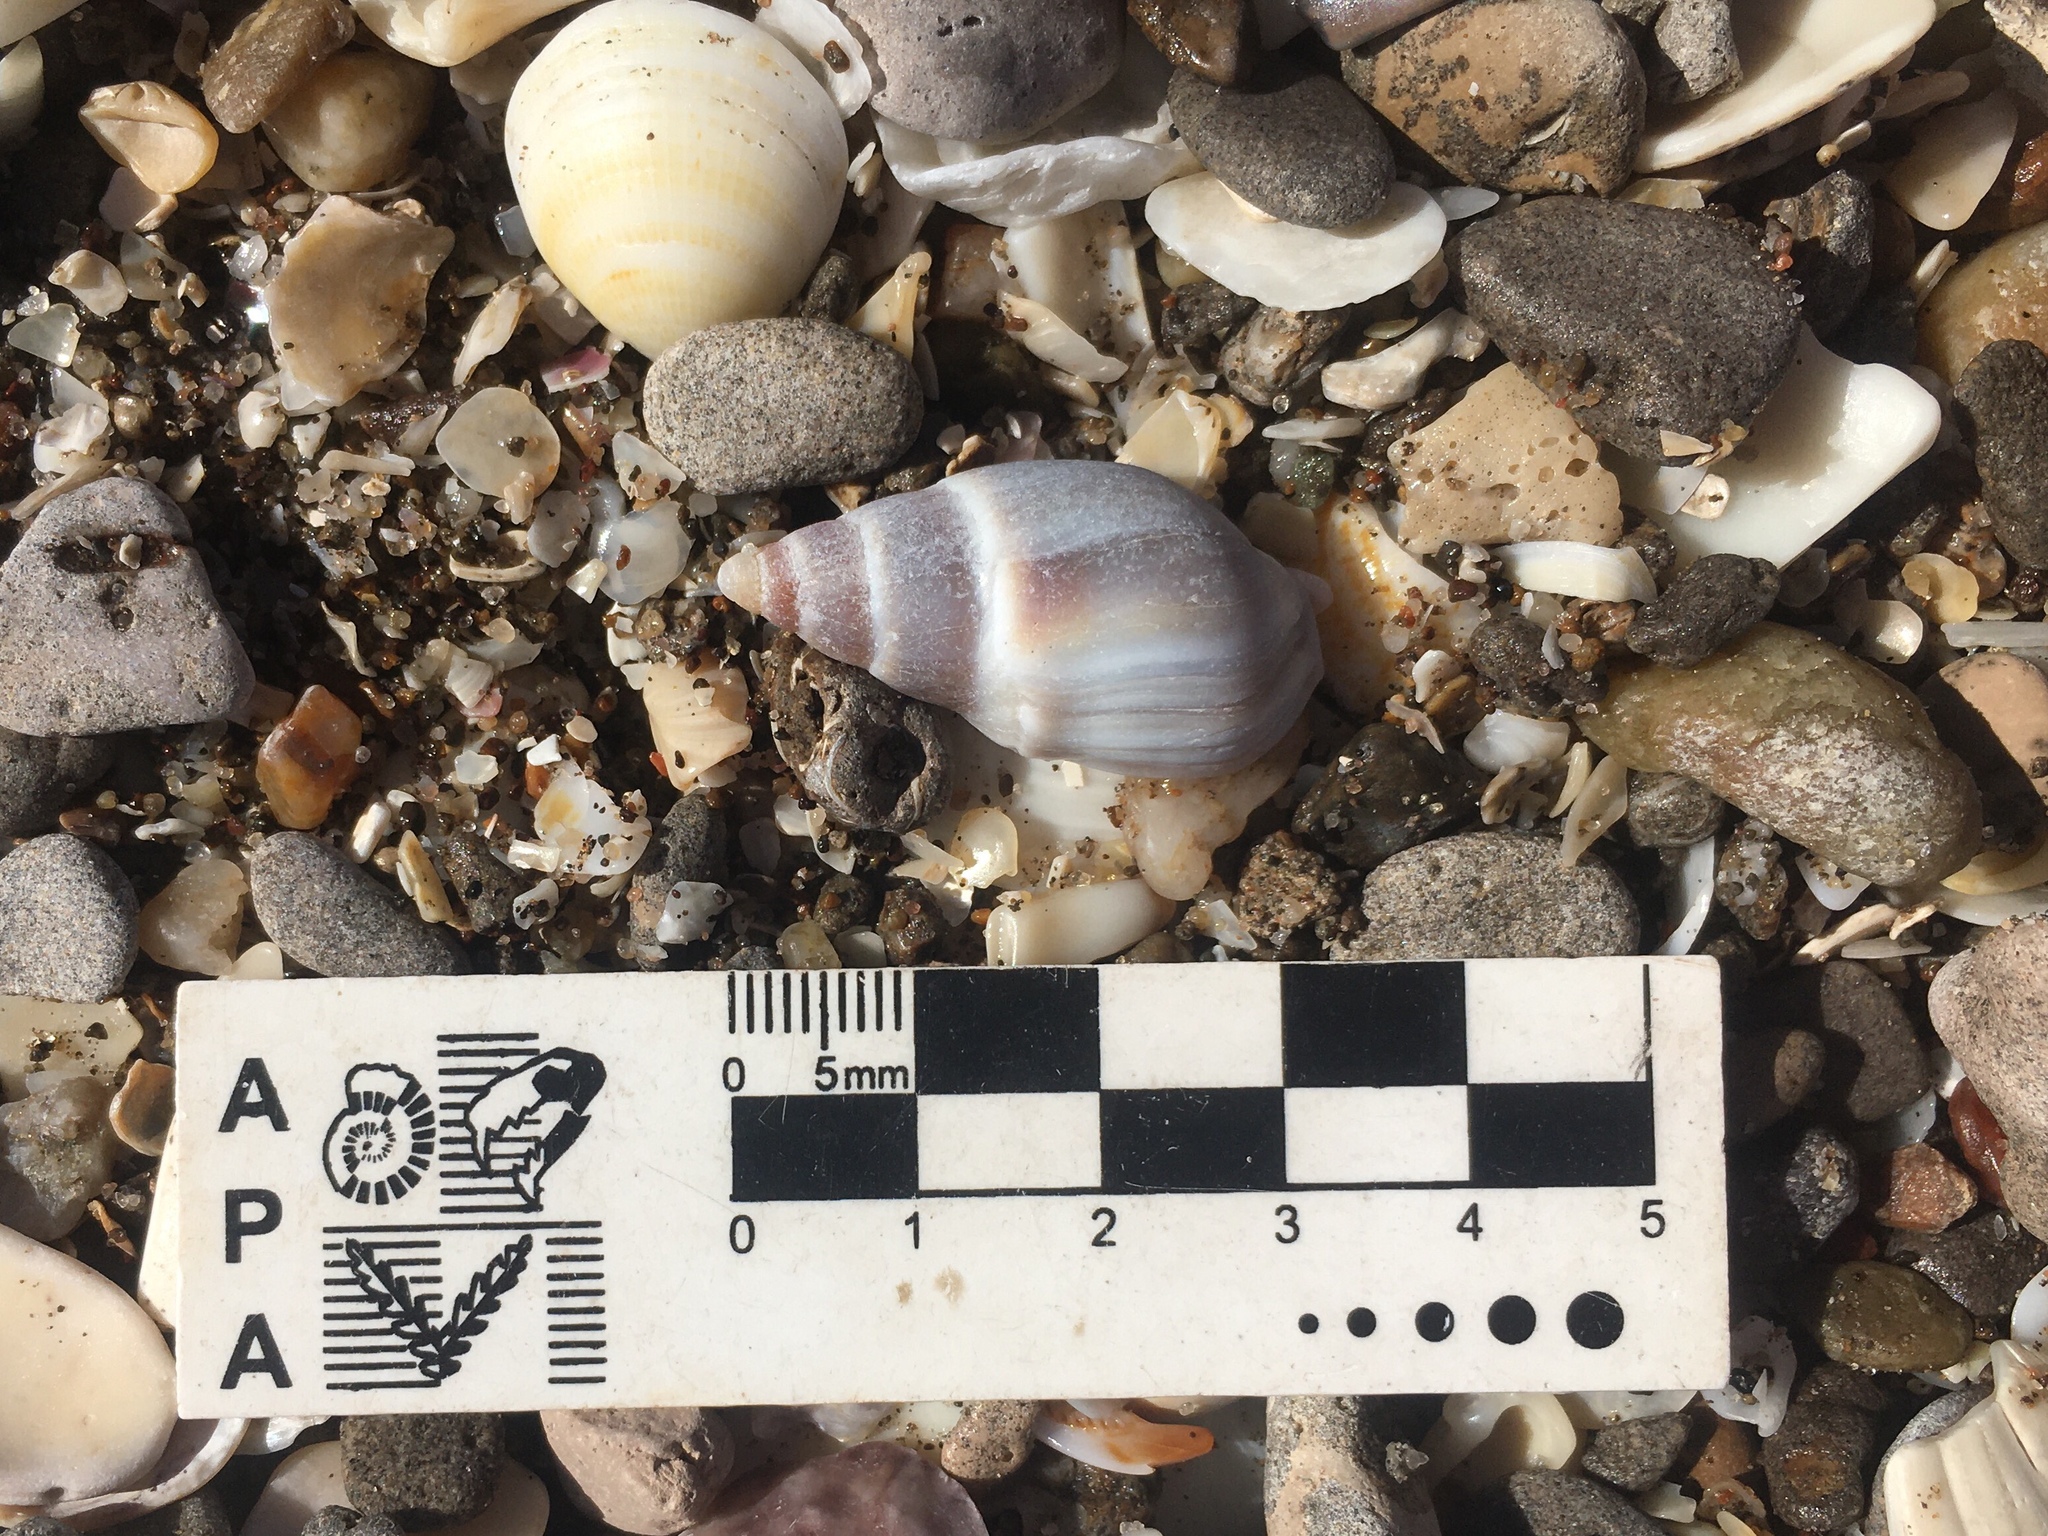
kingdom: Animalia
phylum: Mollusca
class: Gastropoda
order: Neogastropoda
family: Buccinanopsidae
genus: Buccinastrum
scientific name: Buccinastrum duartei
